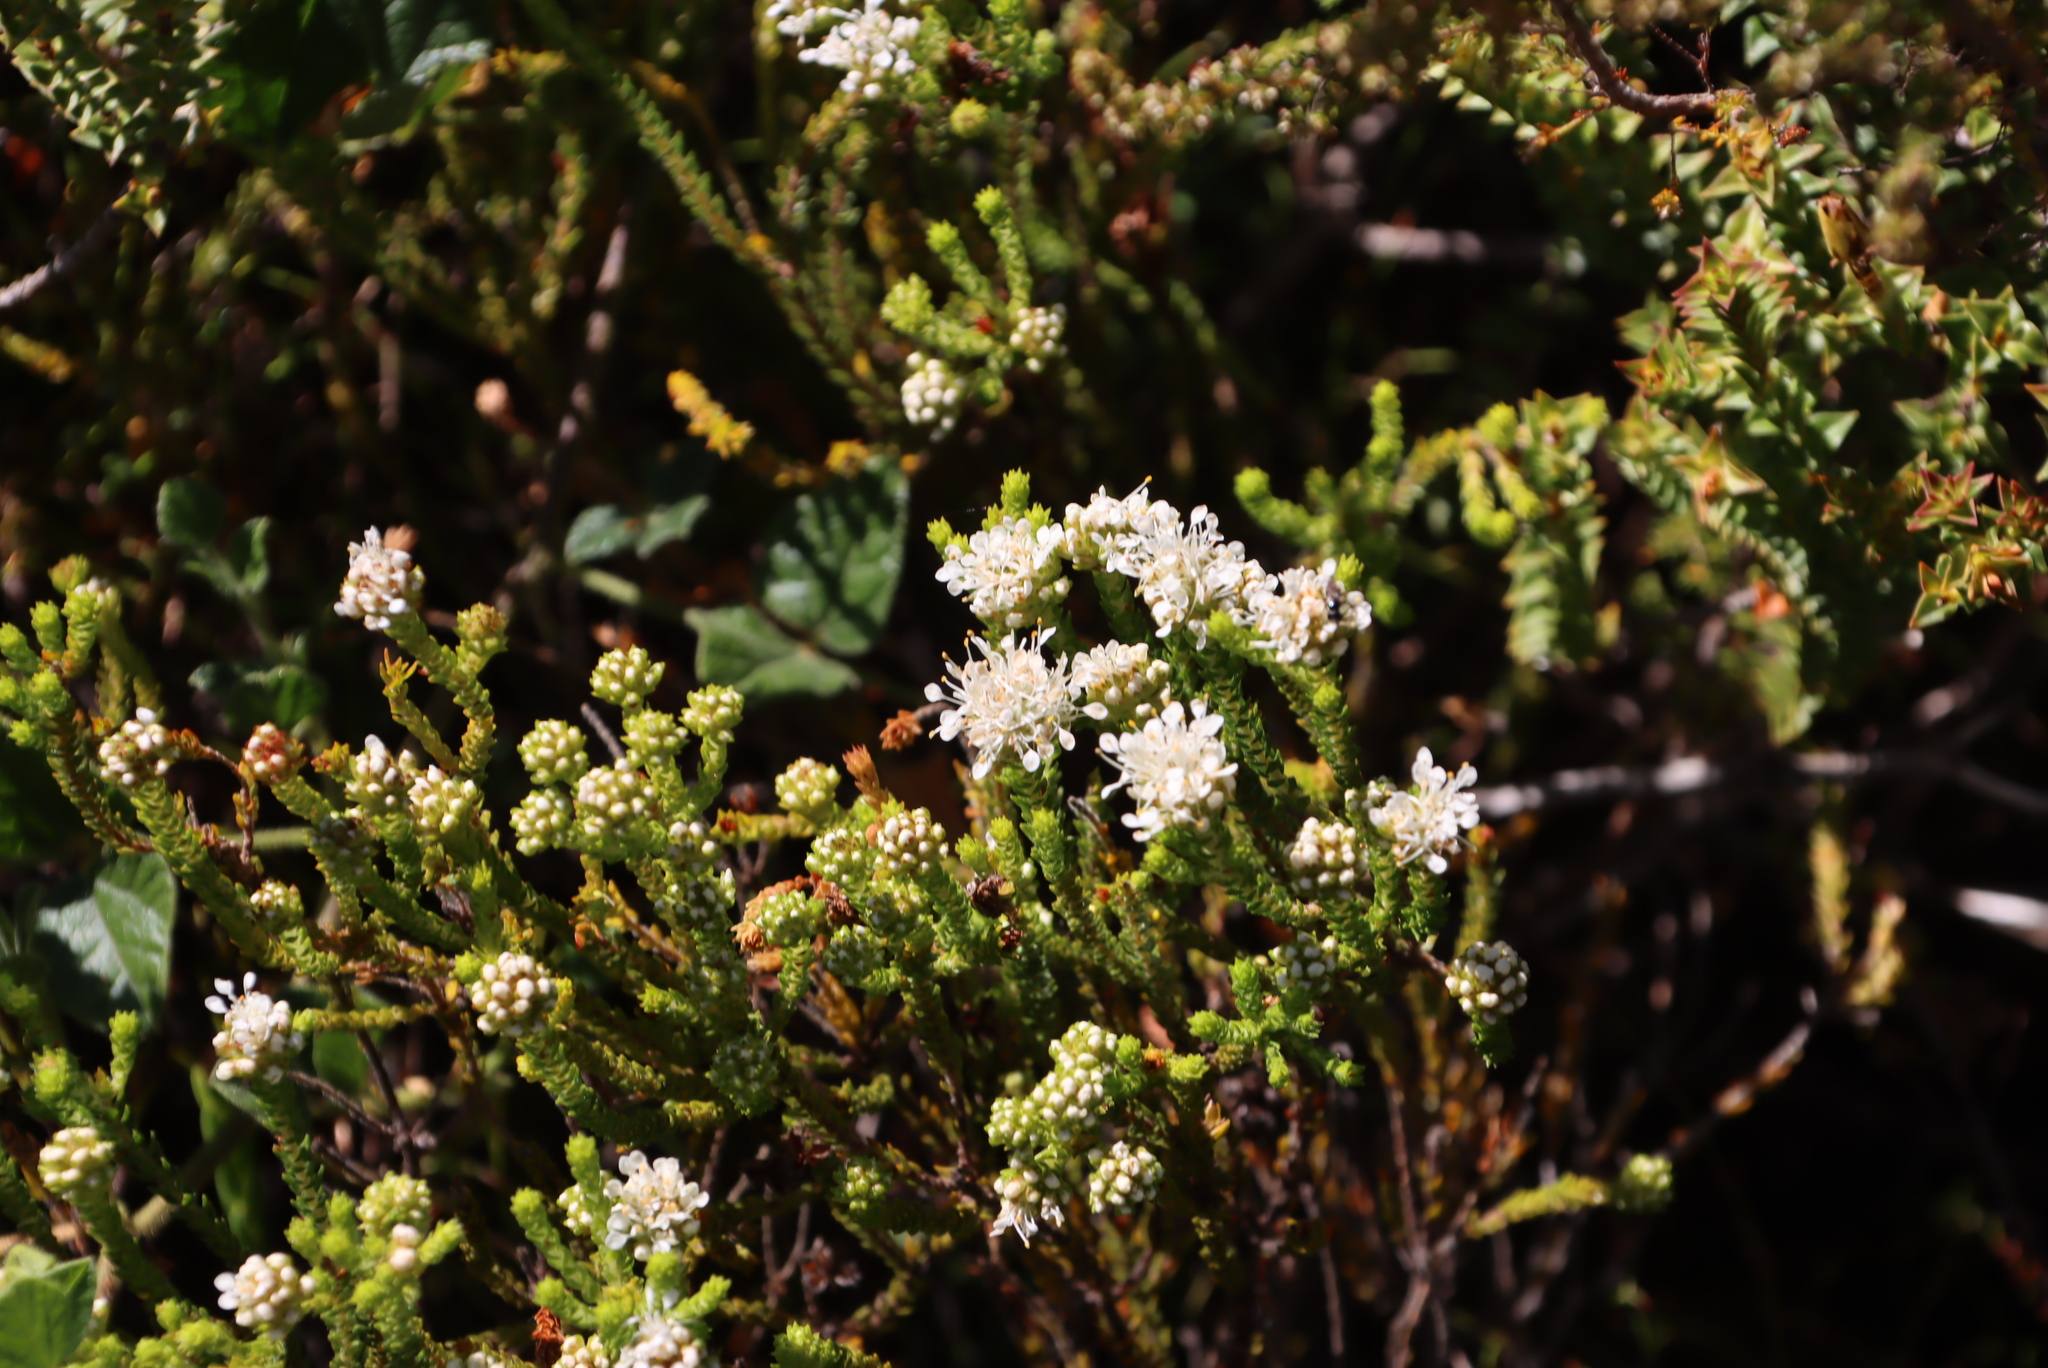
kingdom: Plantae
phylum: Tracheophyta
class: Magnoliopsida
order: Sapindales
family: Rutaceae
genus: Agathosma
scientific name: Agathosma imbricata
